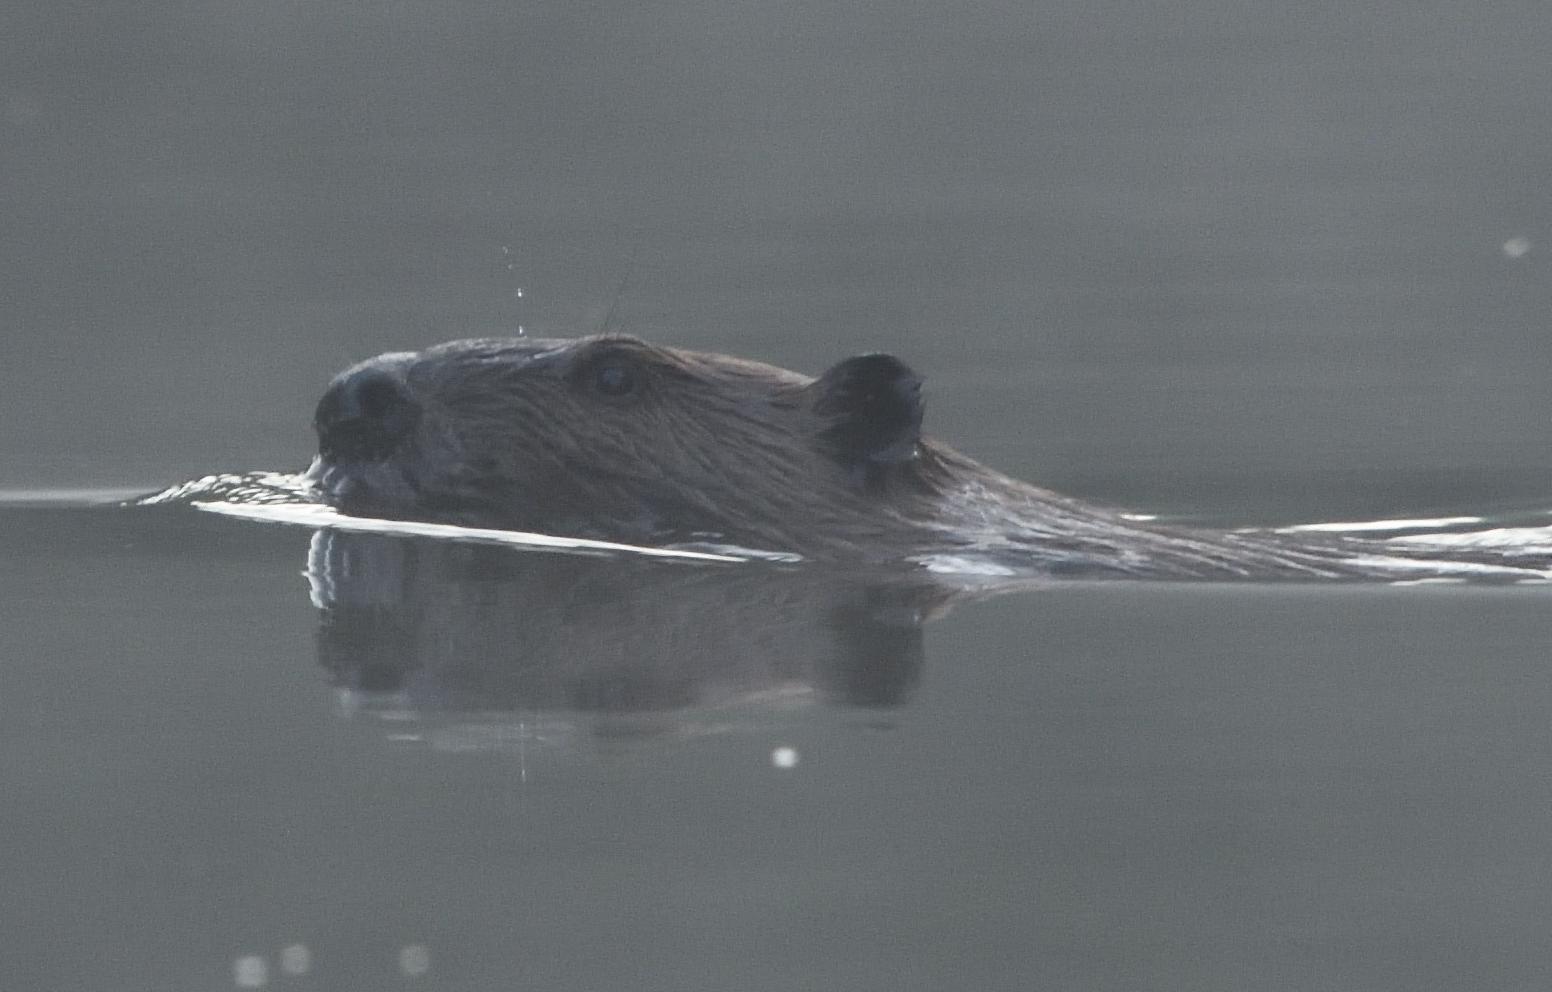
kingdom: Animalia
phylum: Chordata
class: Mammalia
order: Rodentia
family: Castoridae
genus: Castor
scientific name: Castor canadensis
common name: American beaver
